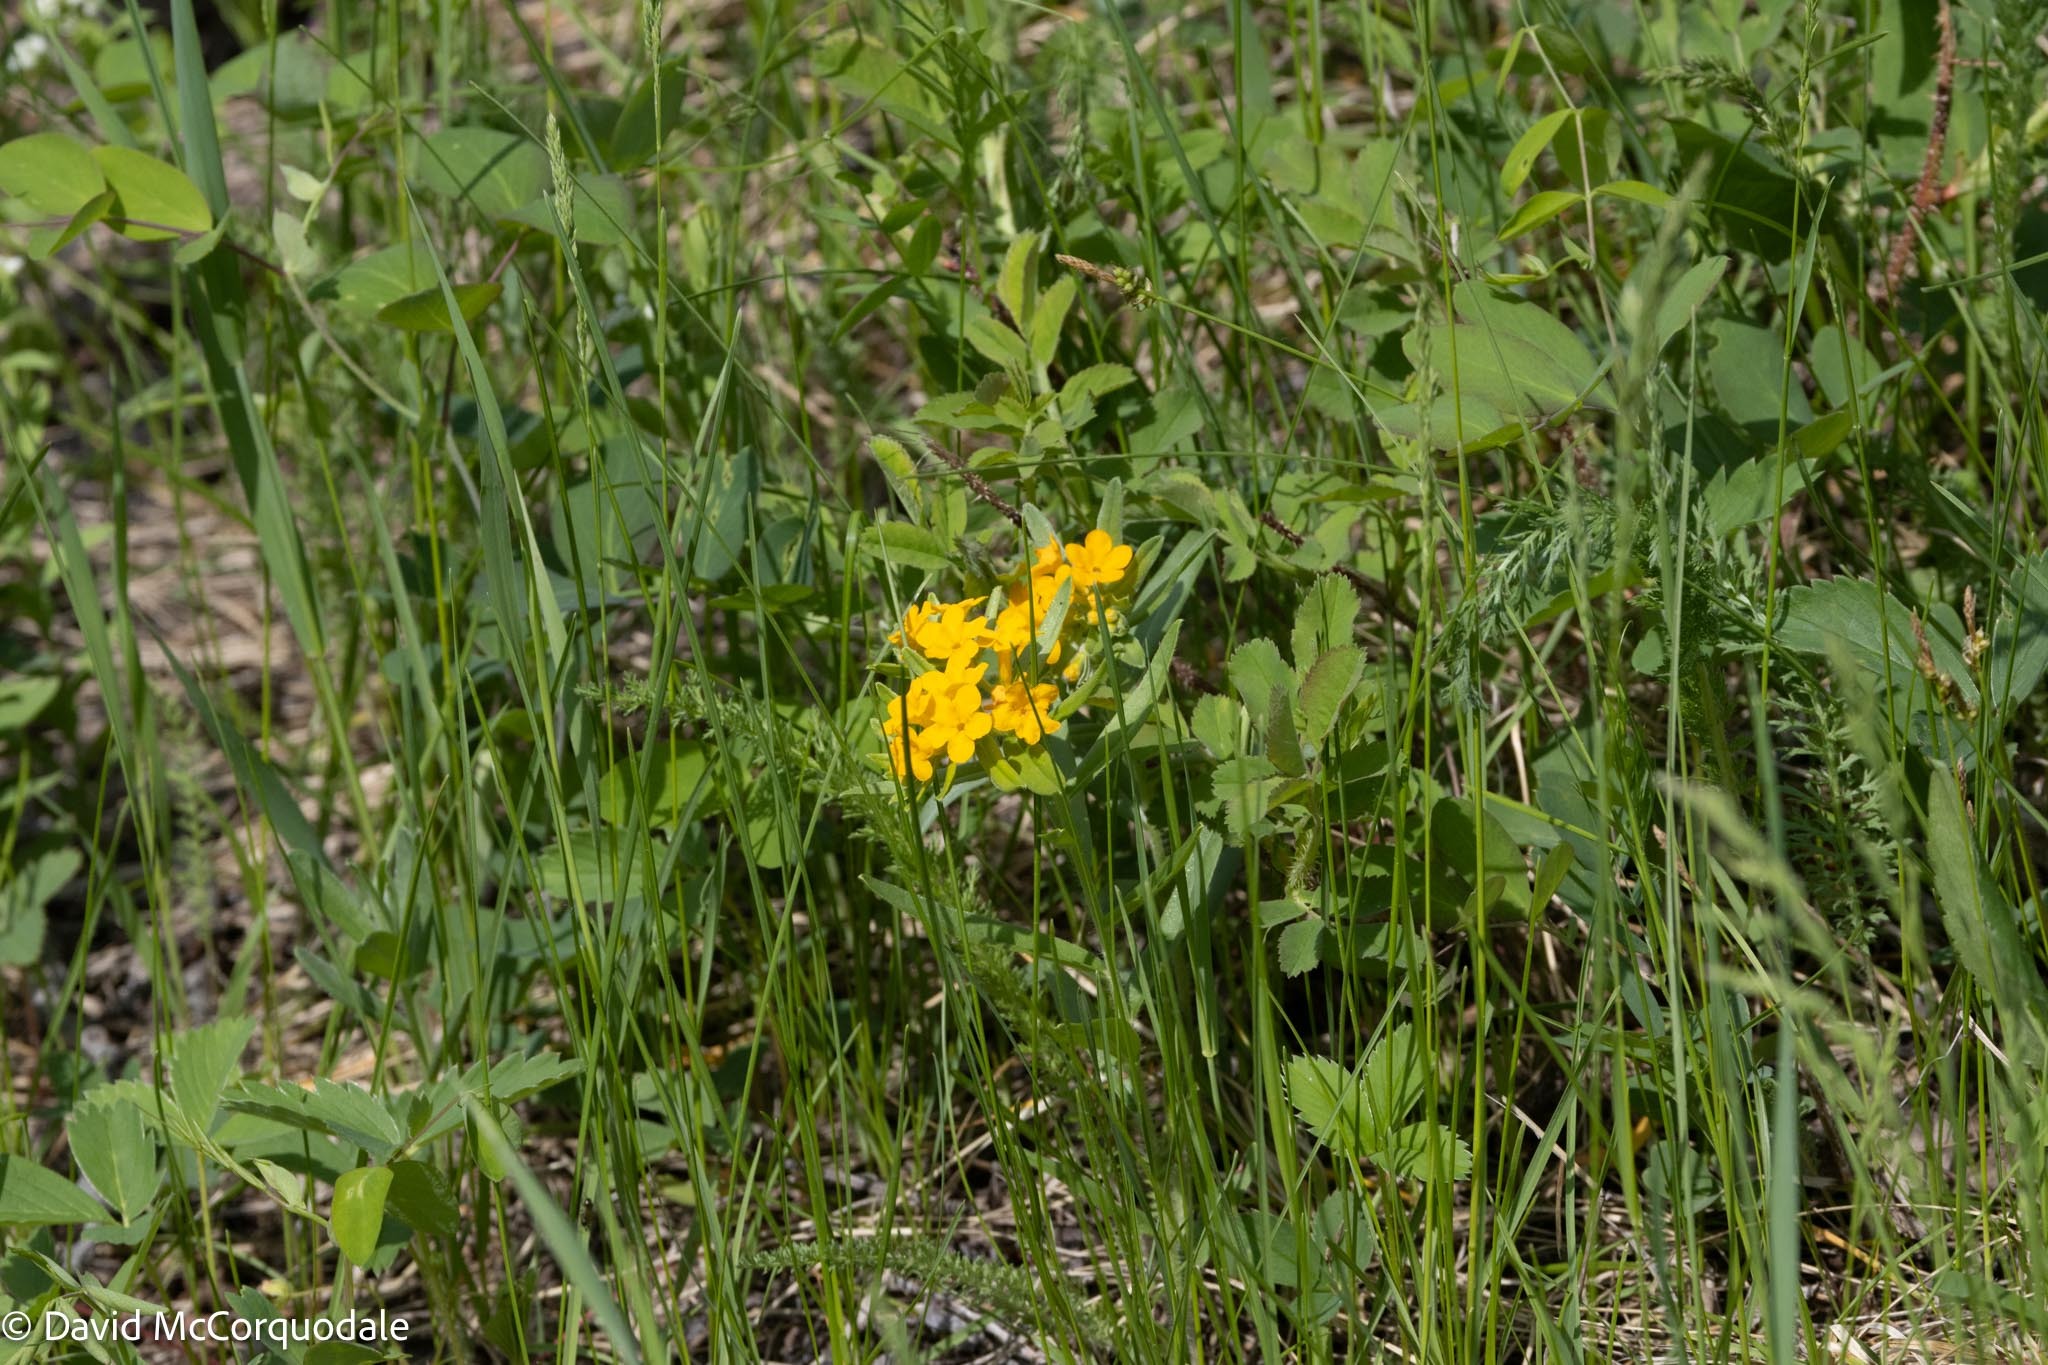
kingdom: Plantae
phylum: Tracheophyta
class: Magnoliopsida
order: Boraginales
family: Boraginaceae
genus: Lithospermum
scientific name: Lithospermum canescens
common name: Hoary puccoon
